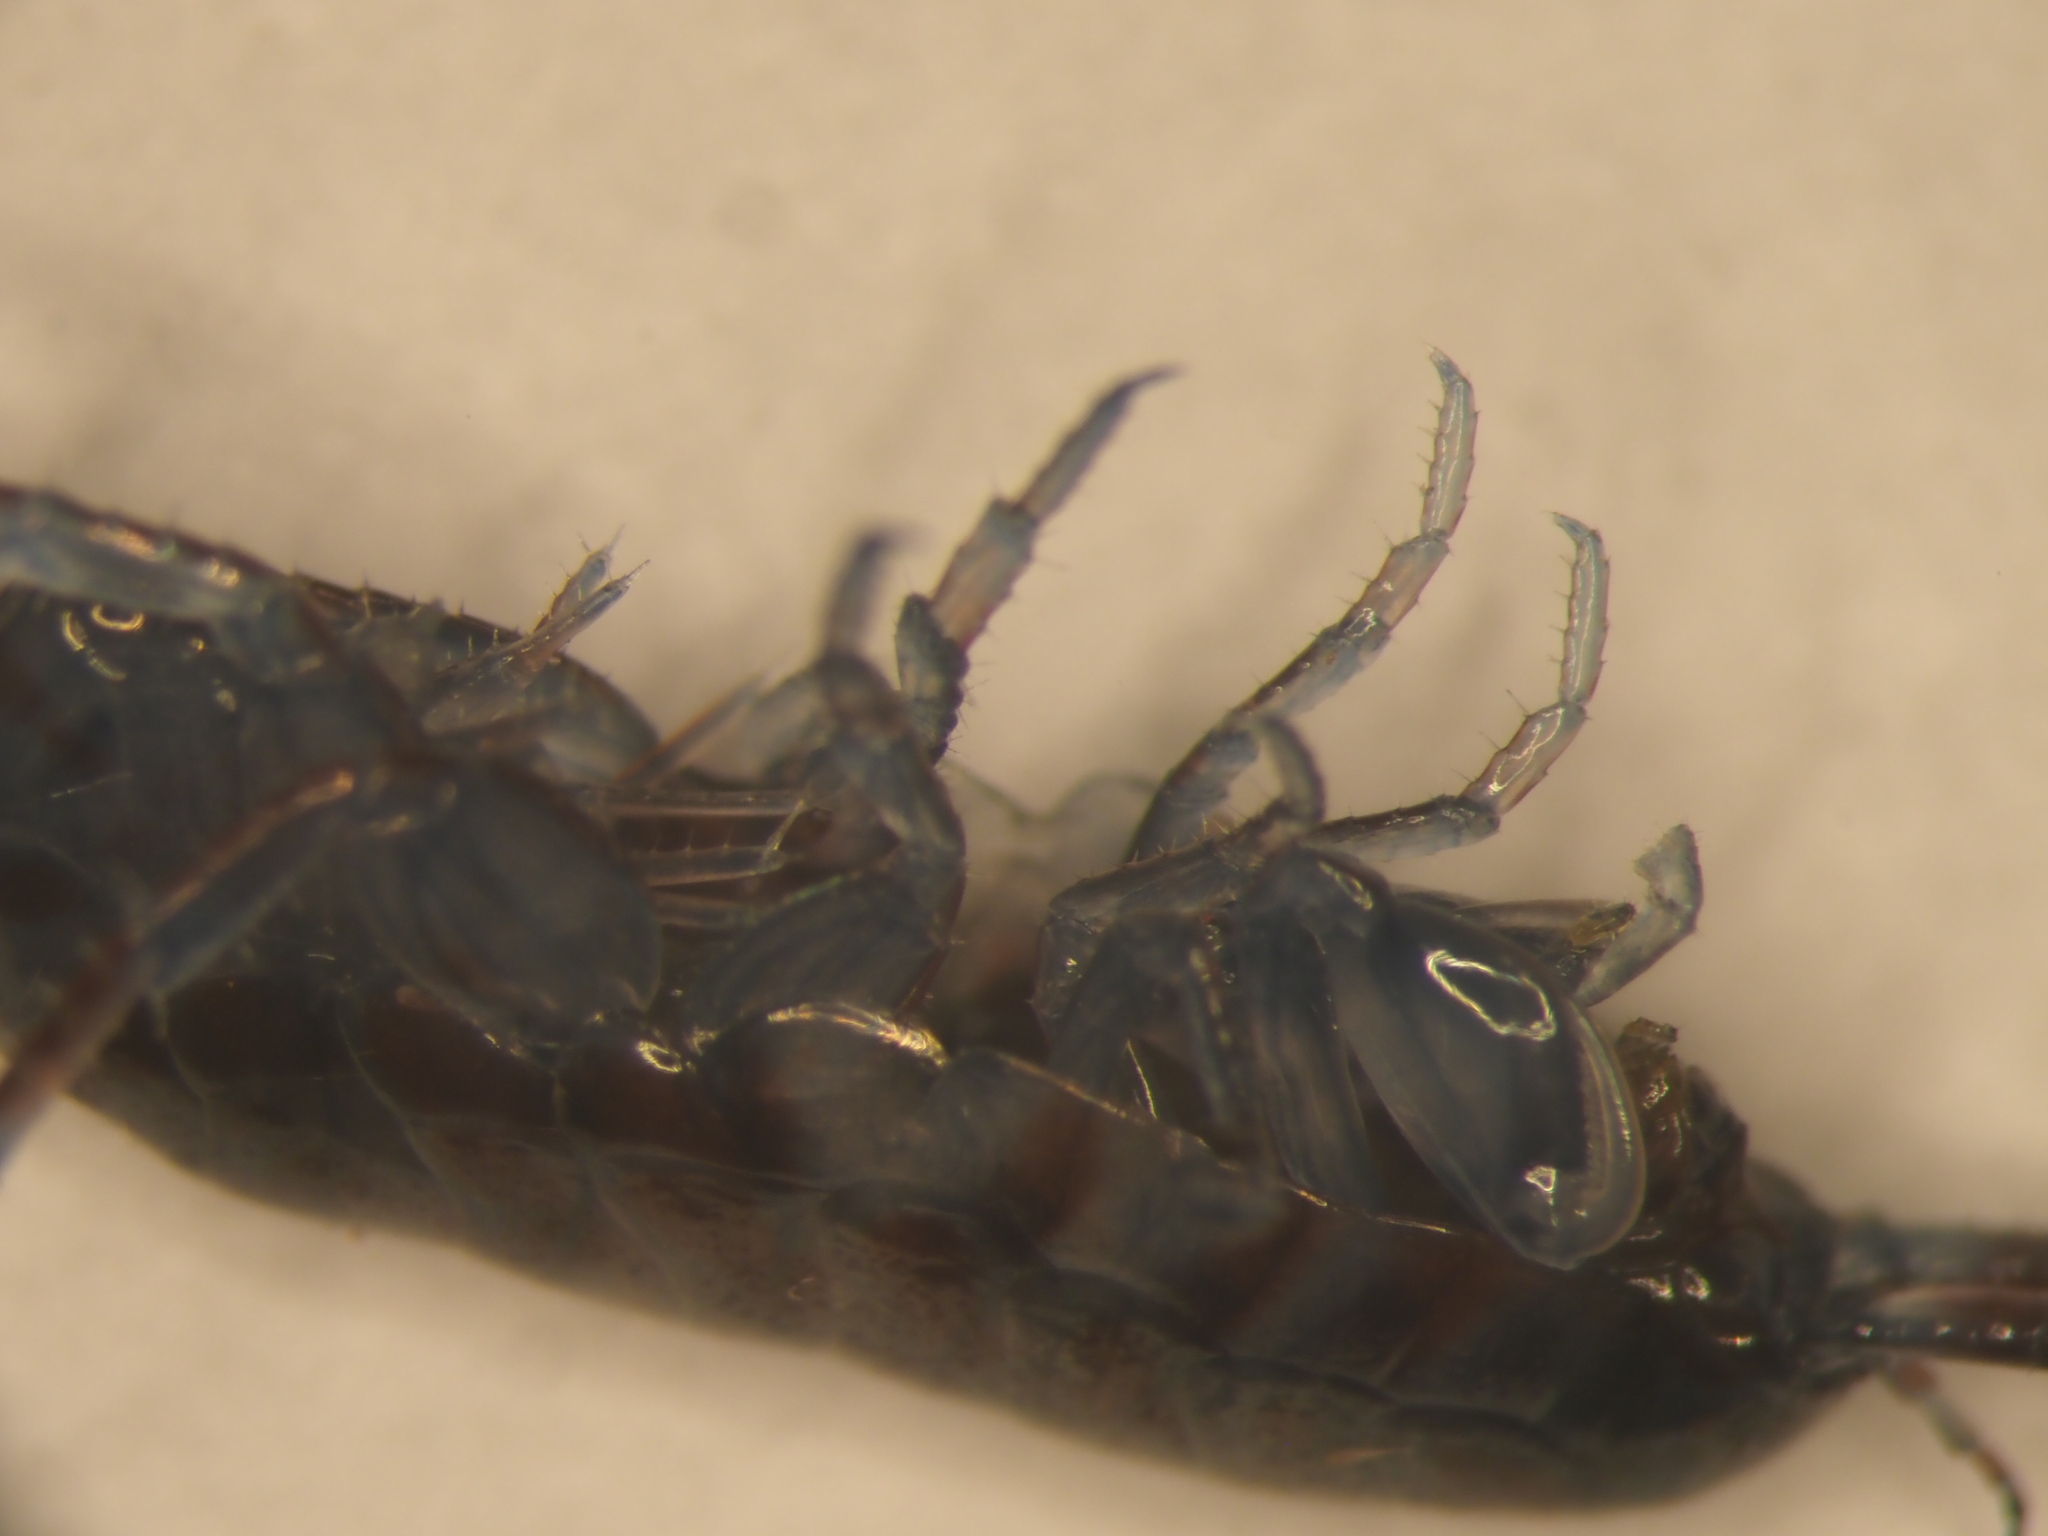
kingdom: Animalia
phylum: Arthropoda
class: Malacostraca
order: Amphipoda
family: Talitridae
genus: Laniporchestia
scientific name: Laniporchestia lanipo
